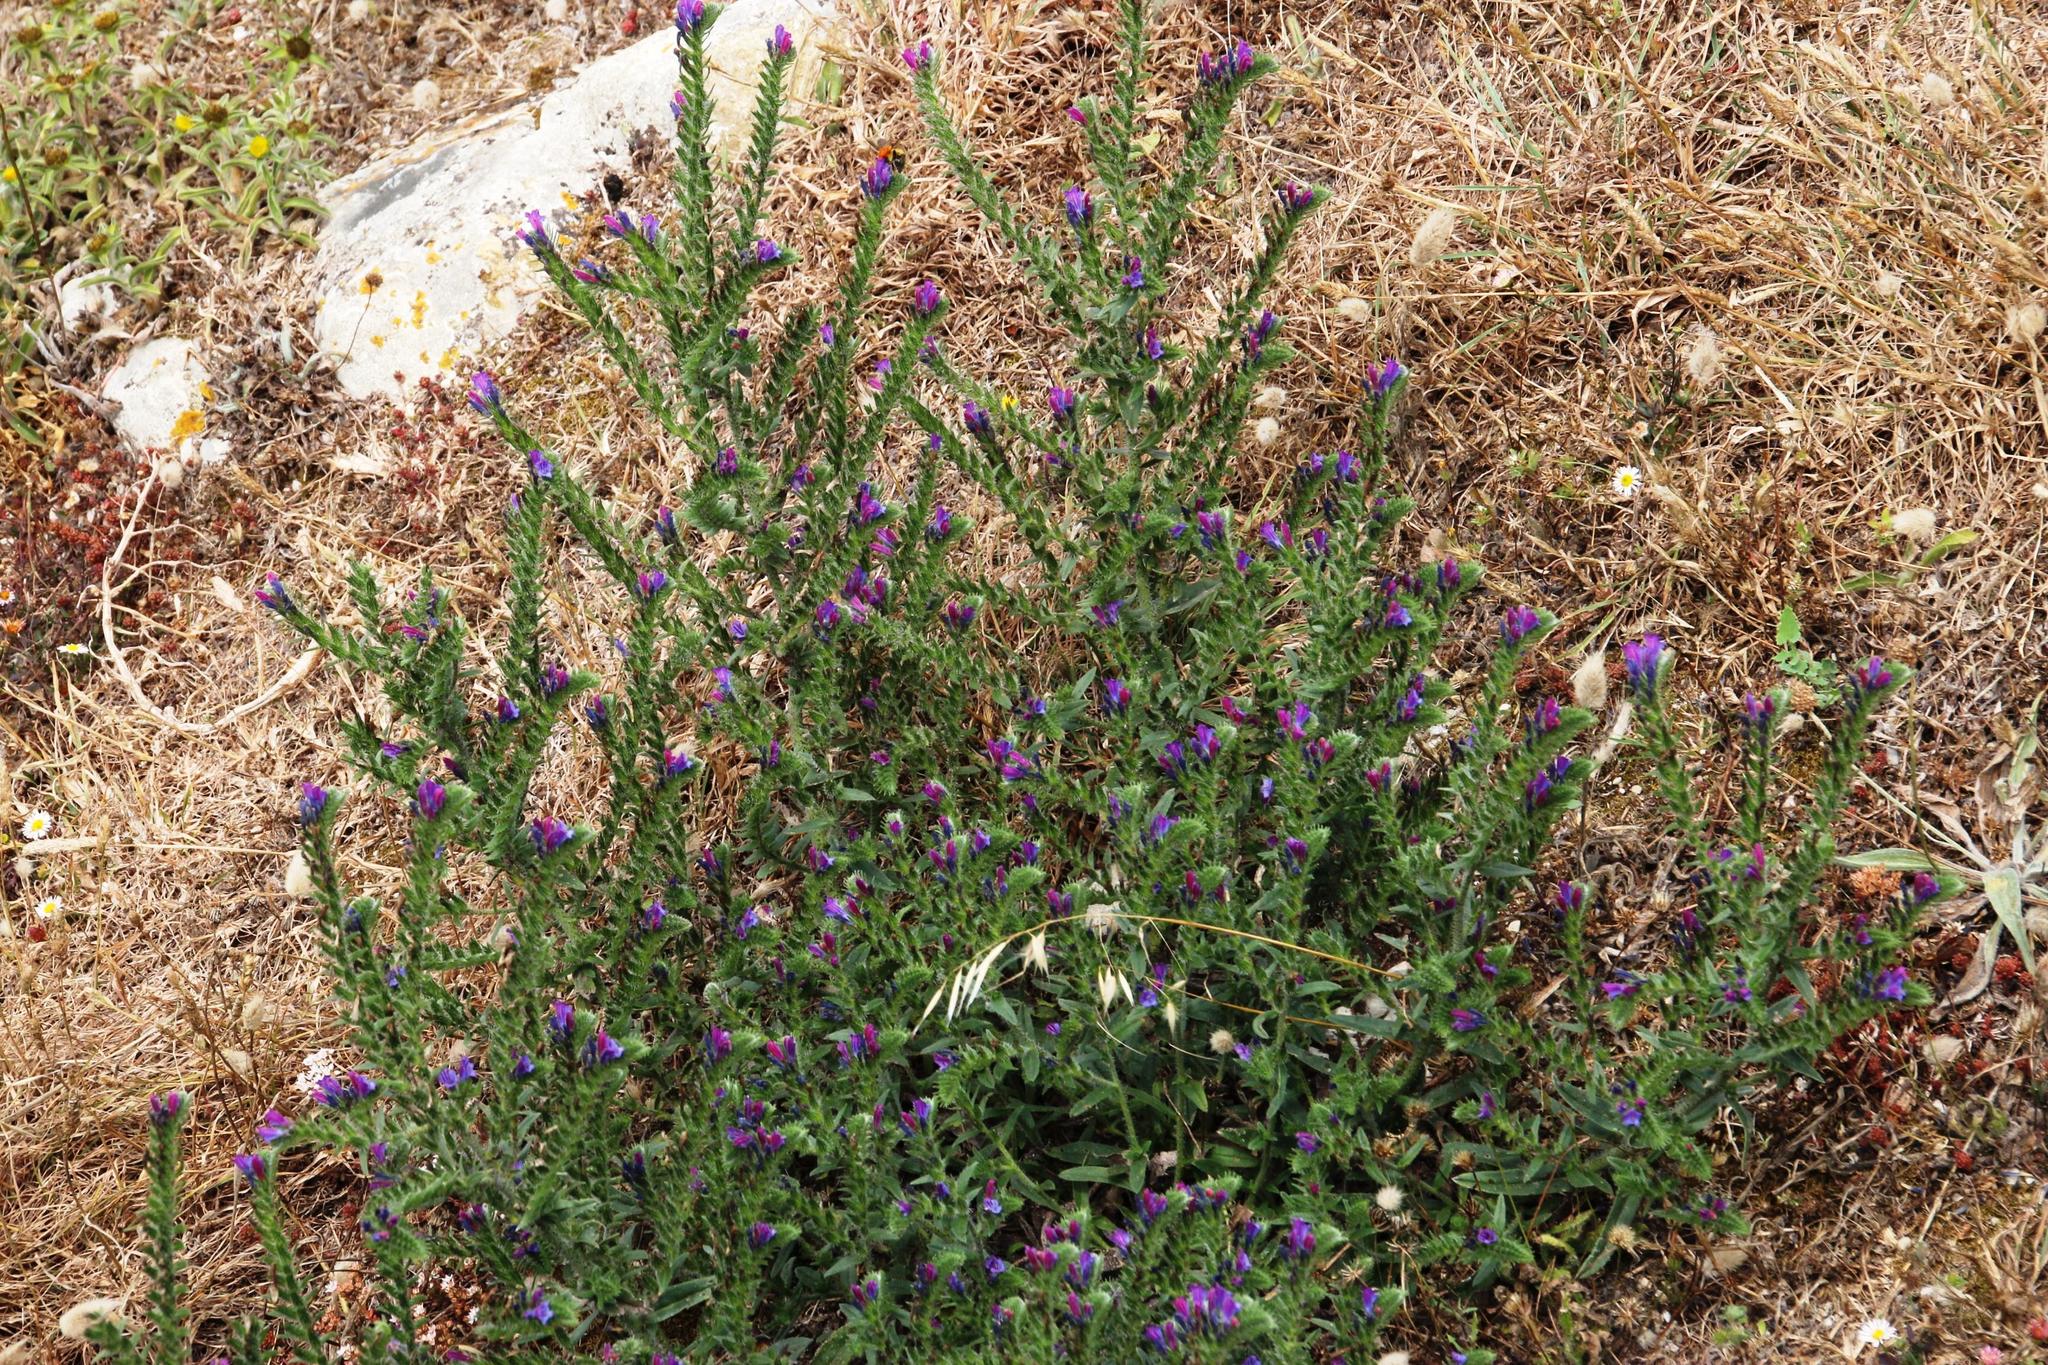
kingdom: Plantae
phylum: Tracheophyta
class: Magnoliopsida
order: Boraginales
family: Boraginaceae
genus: Echium
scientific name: Echium tuberculatum
